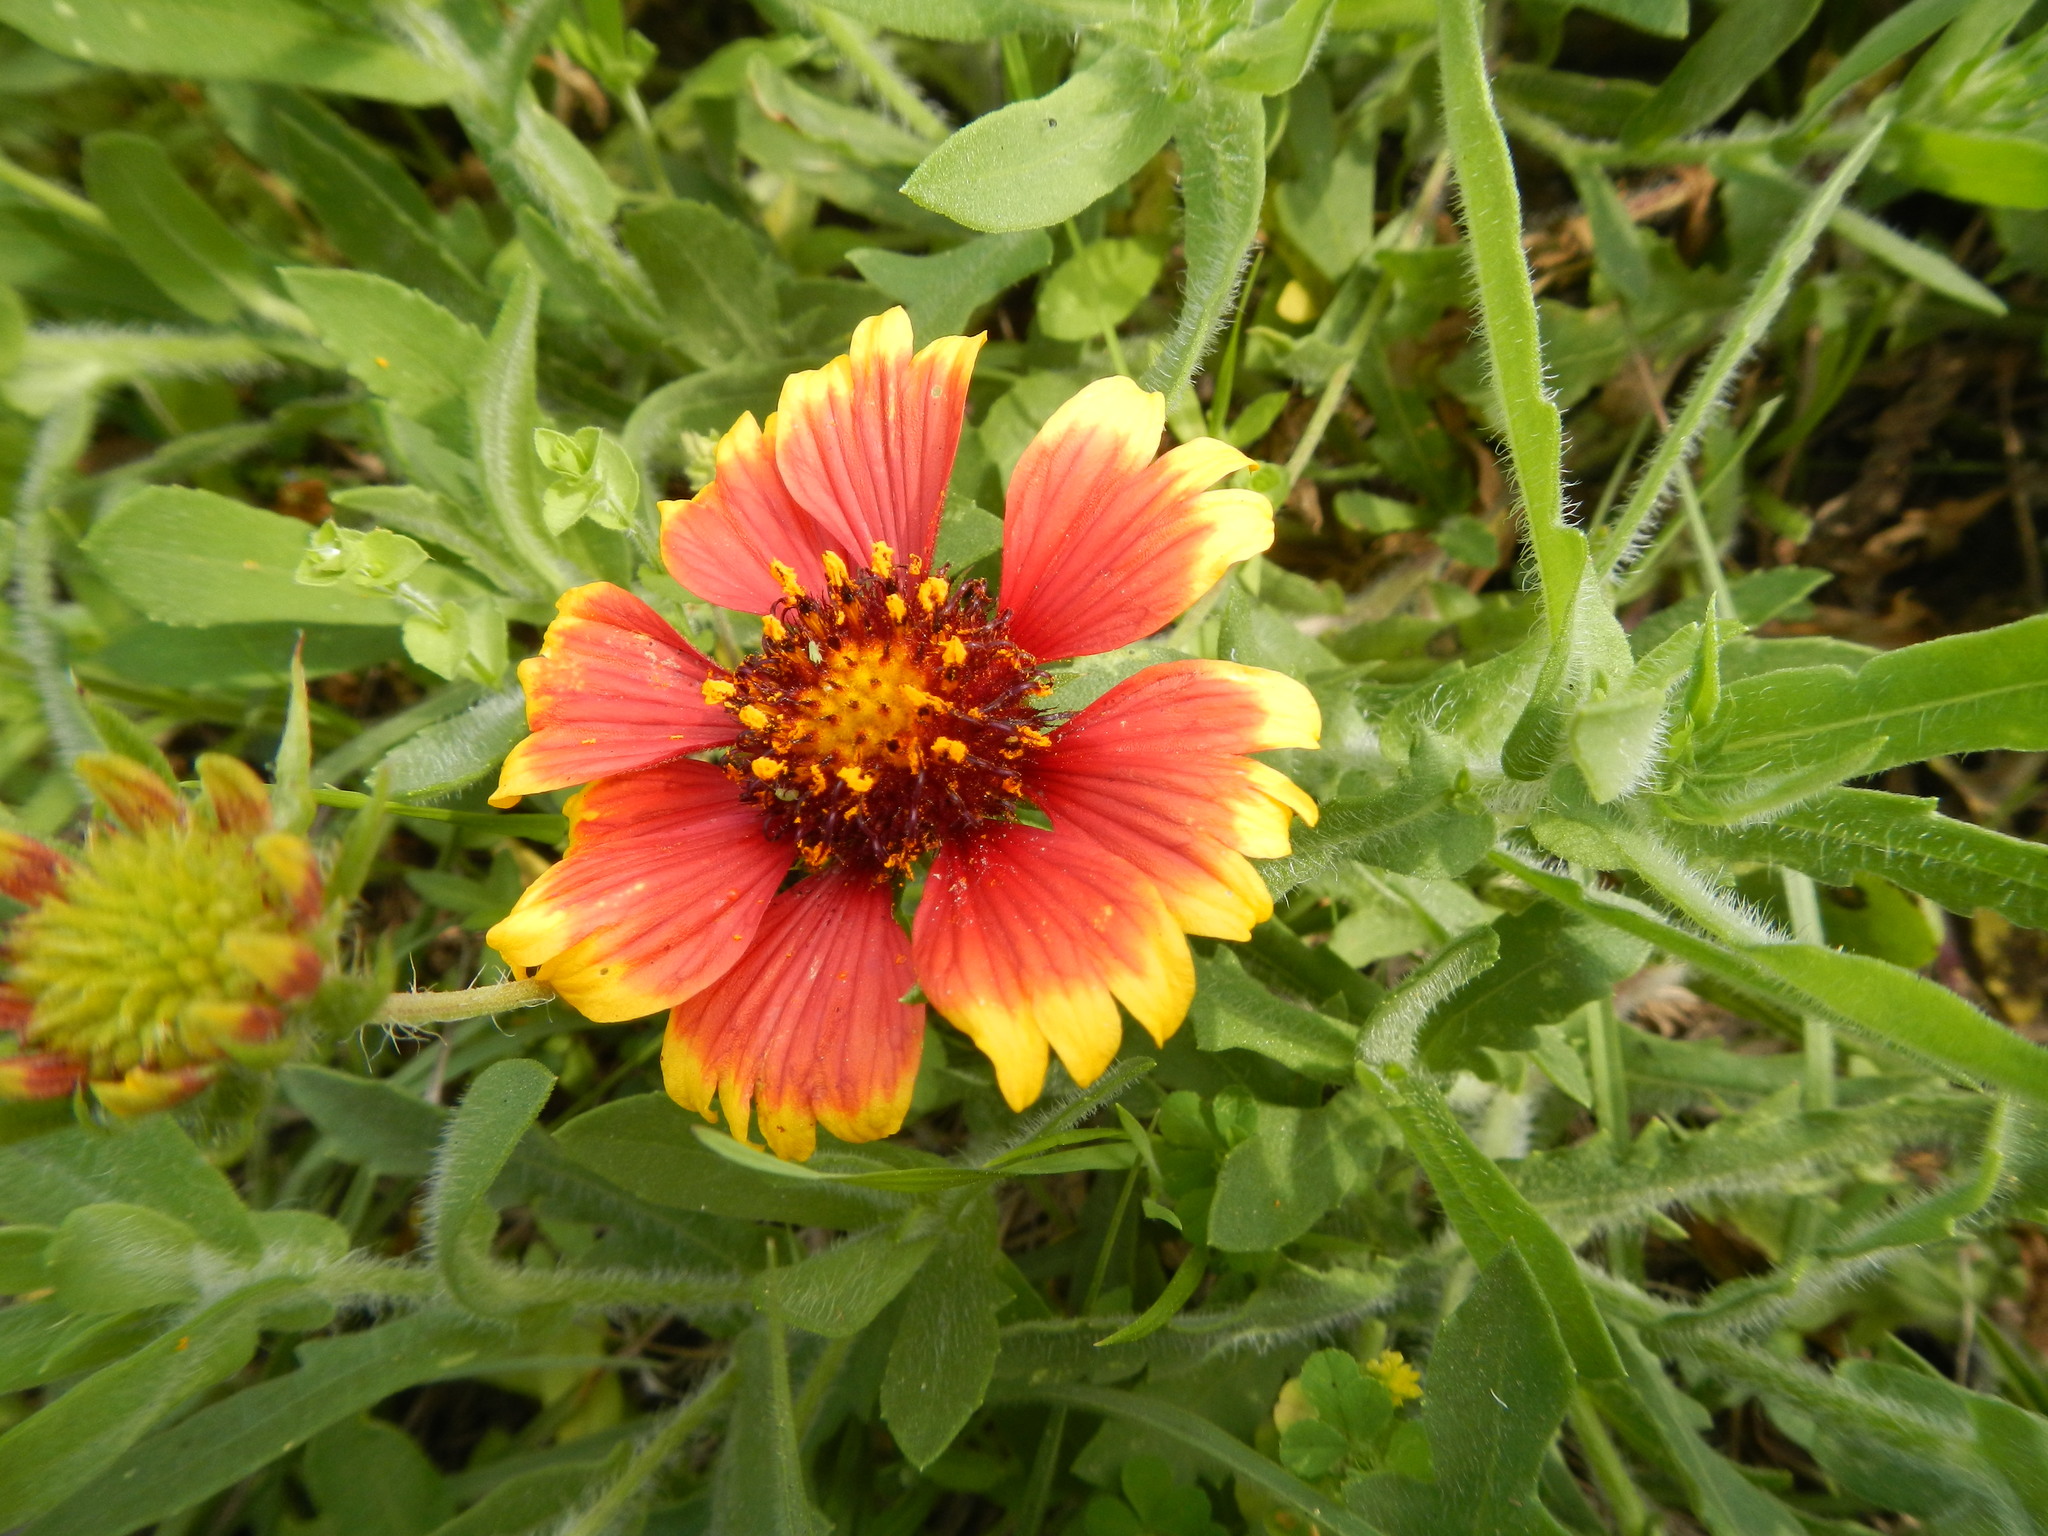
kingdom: Plantae
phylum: Tracheophyta
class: Magnoliopsida
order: Asterales
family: Asteraceae
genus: Gaillardia
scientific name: Gaillardia pulchella
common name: Firewheel
